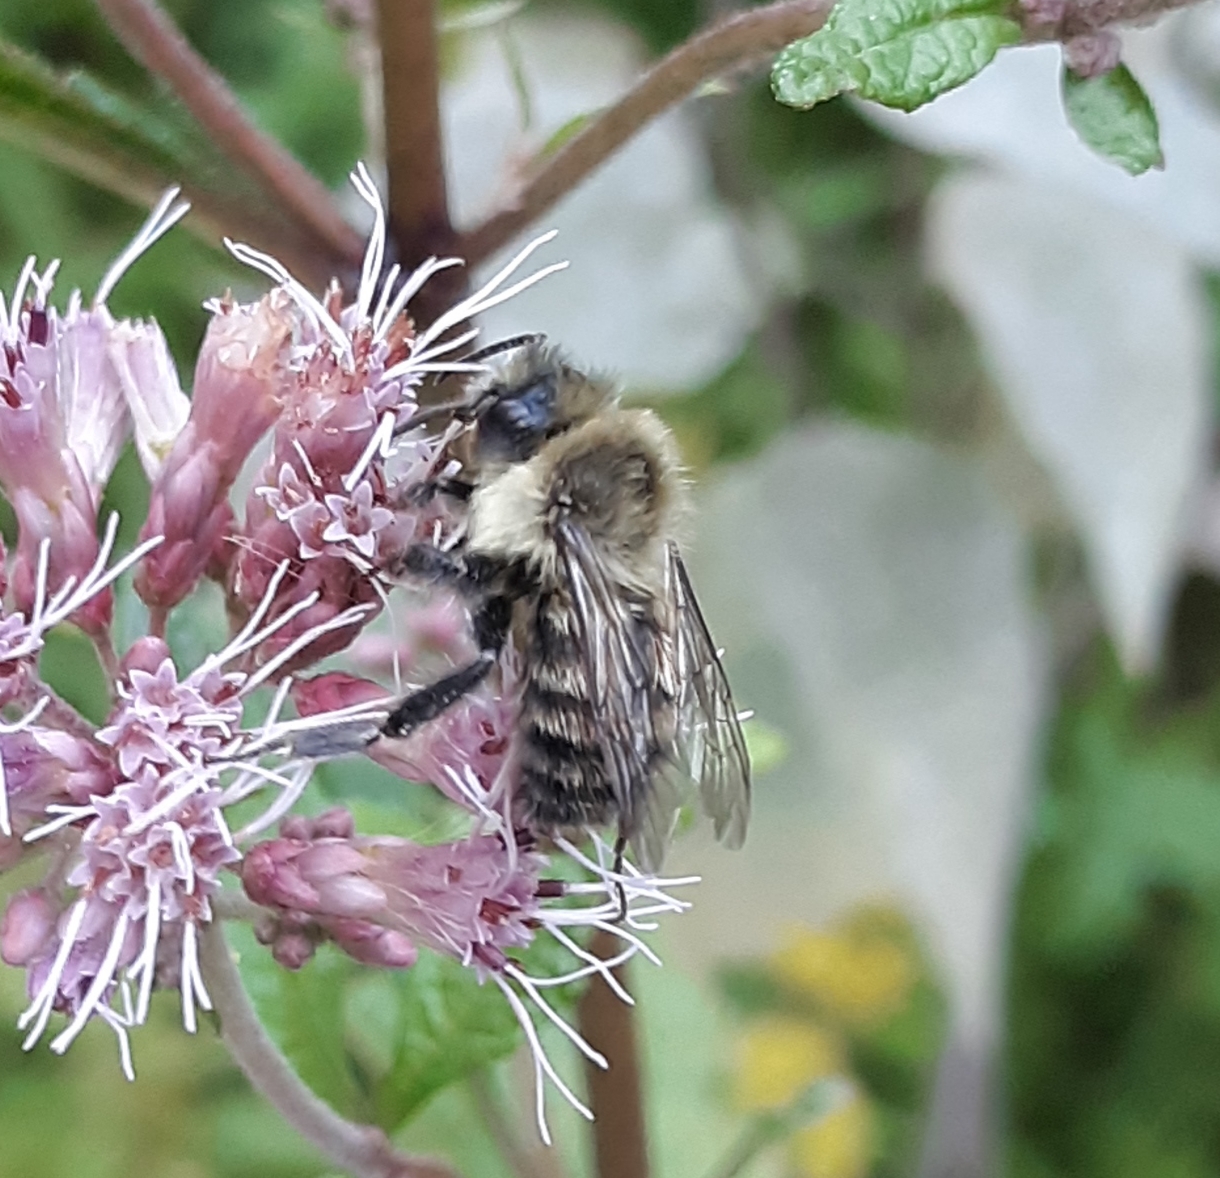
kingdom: Animalia
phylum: Arthropoda
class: Insecta
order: Hymenoptera
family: Apidae
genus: Bombus
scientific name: Bombus impatiens
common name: Common eastern bumble bee
